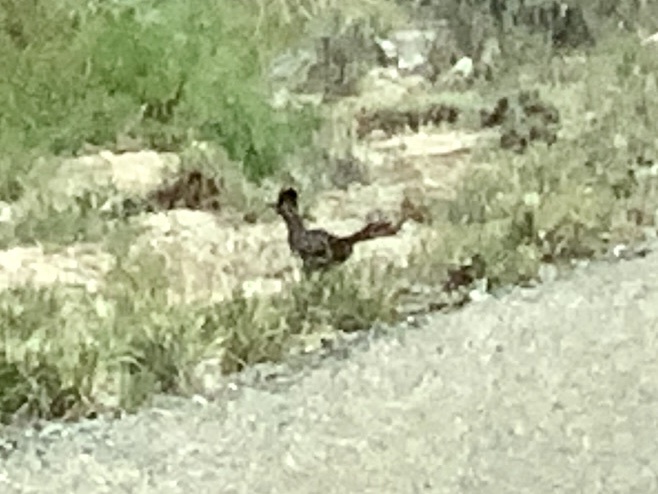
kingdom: Animalia
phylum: Chordata
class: Aves
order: Cuculiformes
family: Cuculidae
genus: Geococcyx
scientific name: Geococcyx californianus
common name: Greater roadrunner
